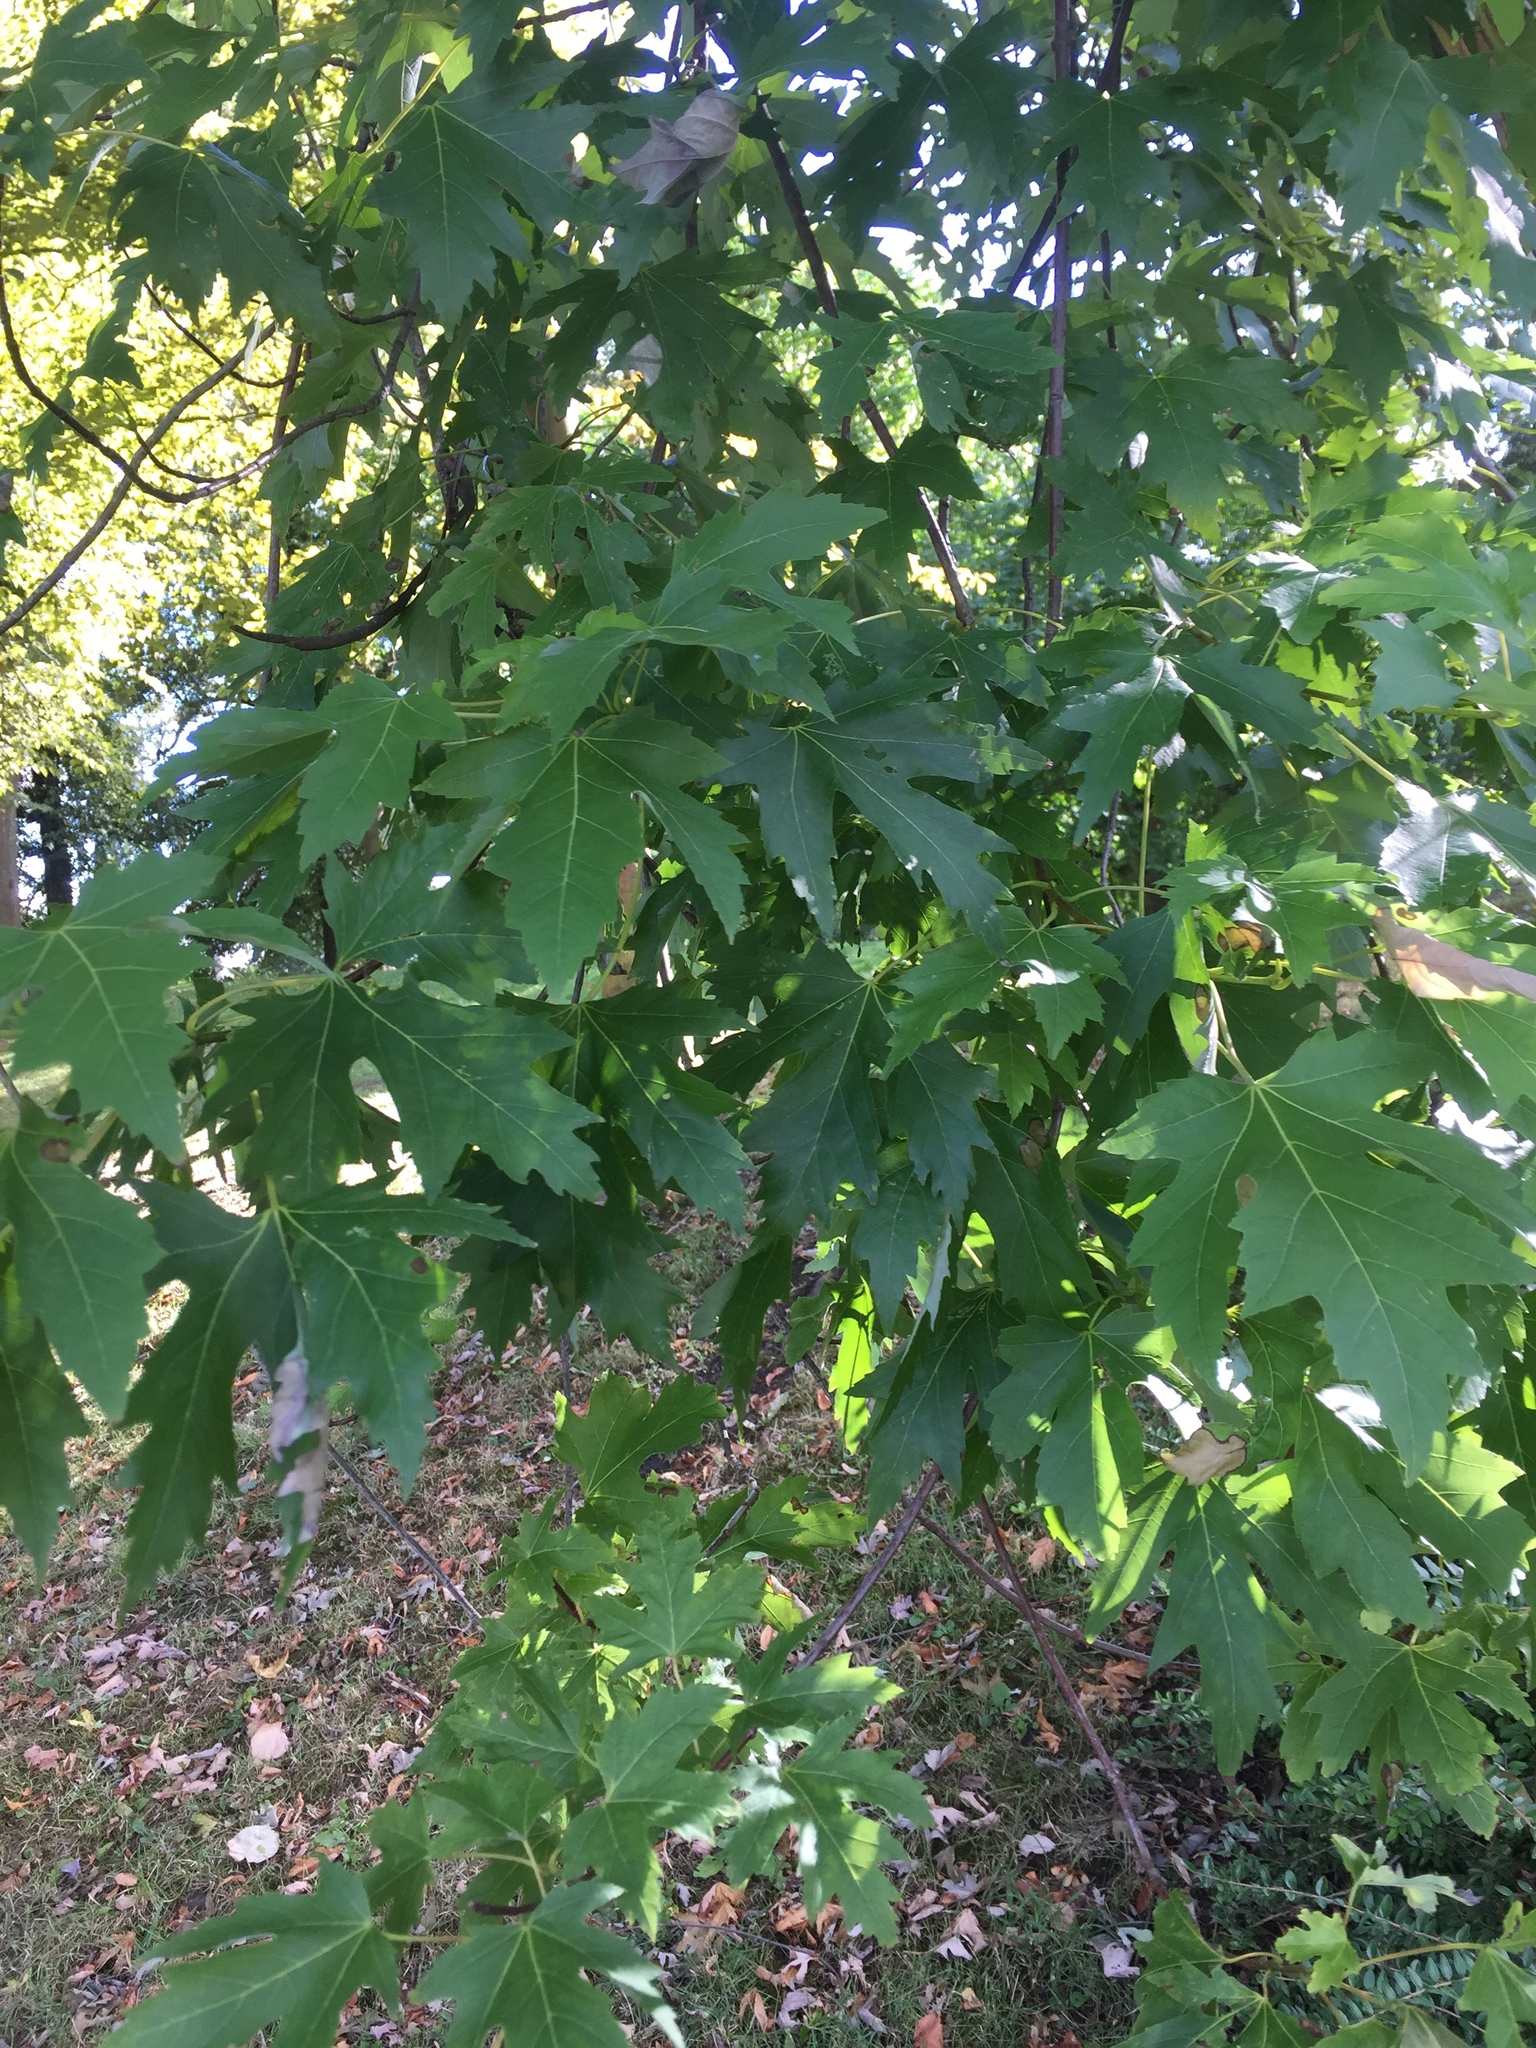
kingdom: Plantae
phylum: Tracheophyta
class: Magnoliopsida
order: Sapindales
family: Sapindaceae
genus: Acer
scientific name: Acer saccharinum
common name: Silver maple
